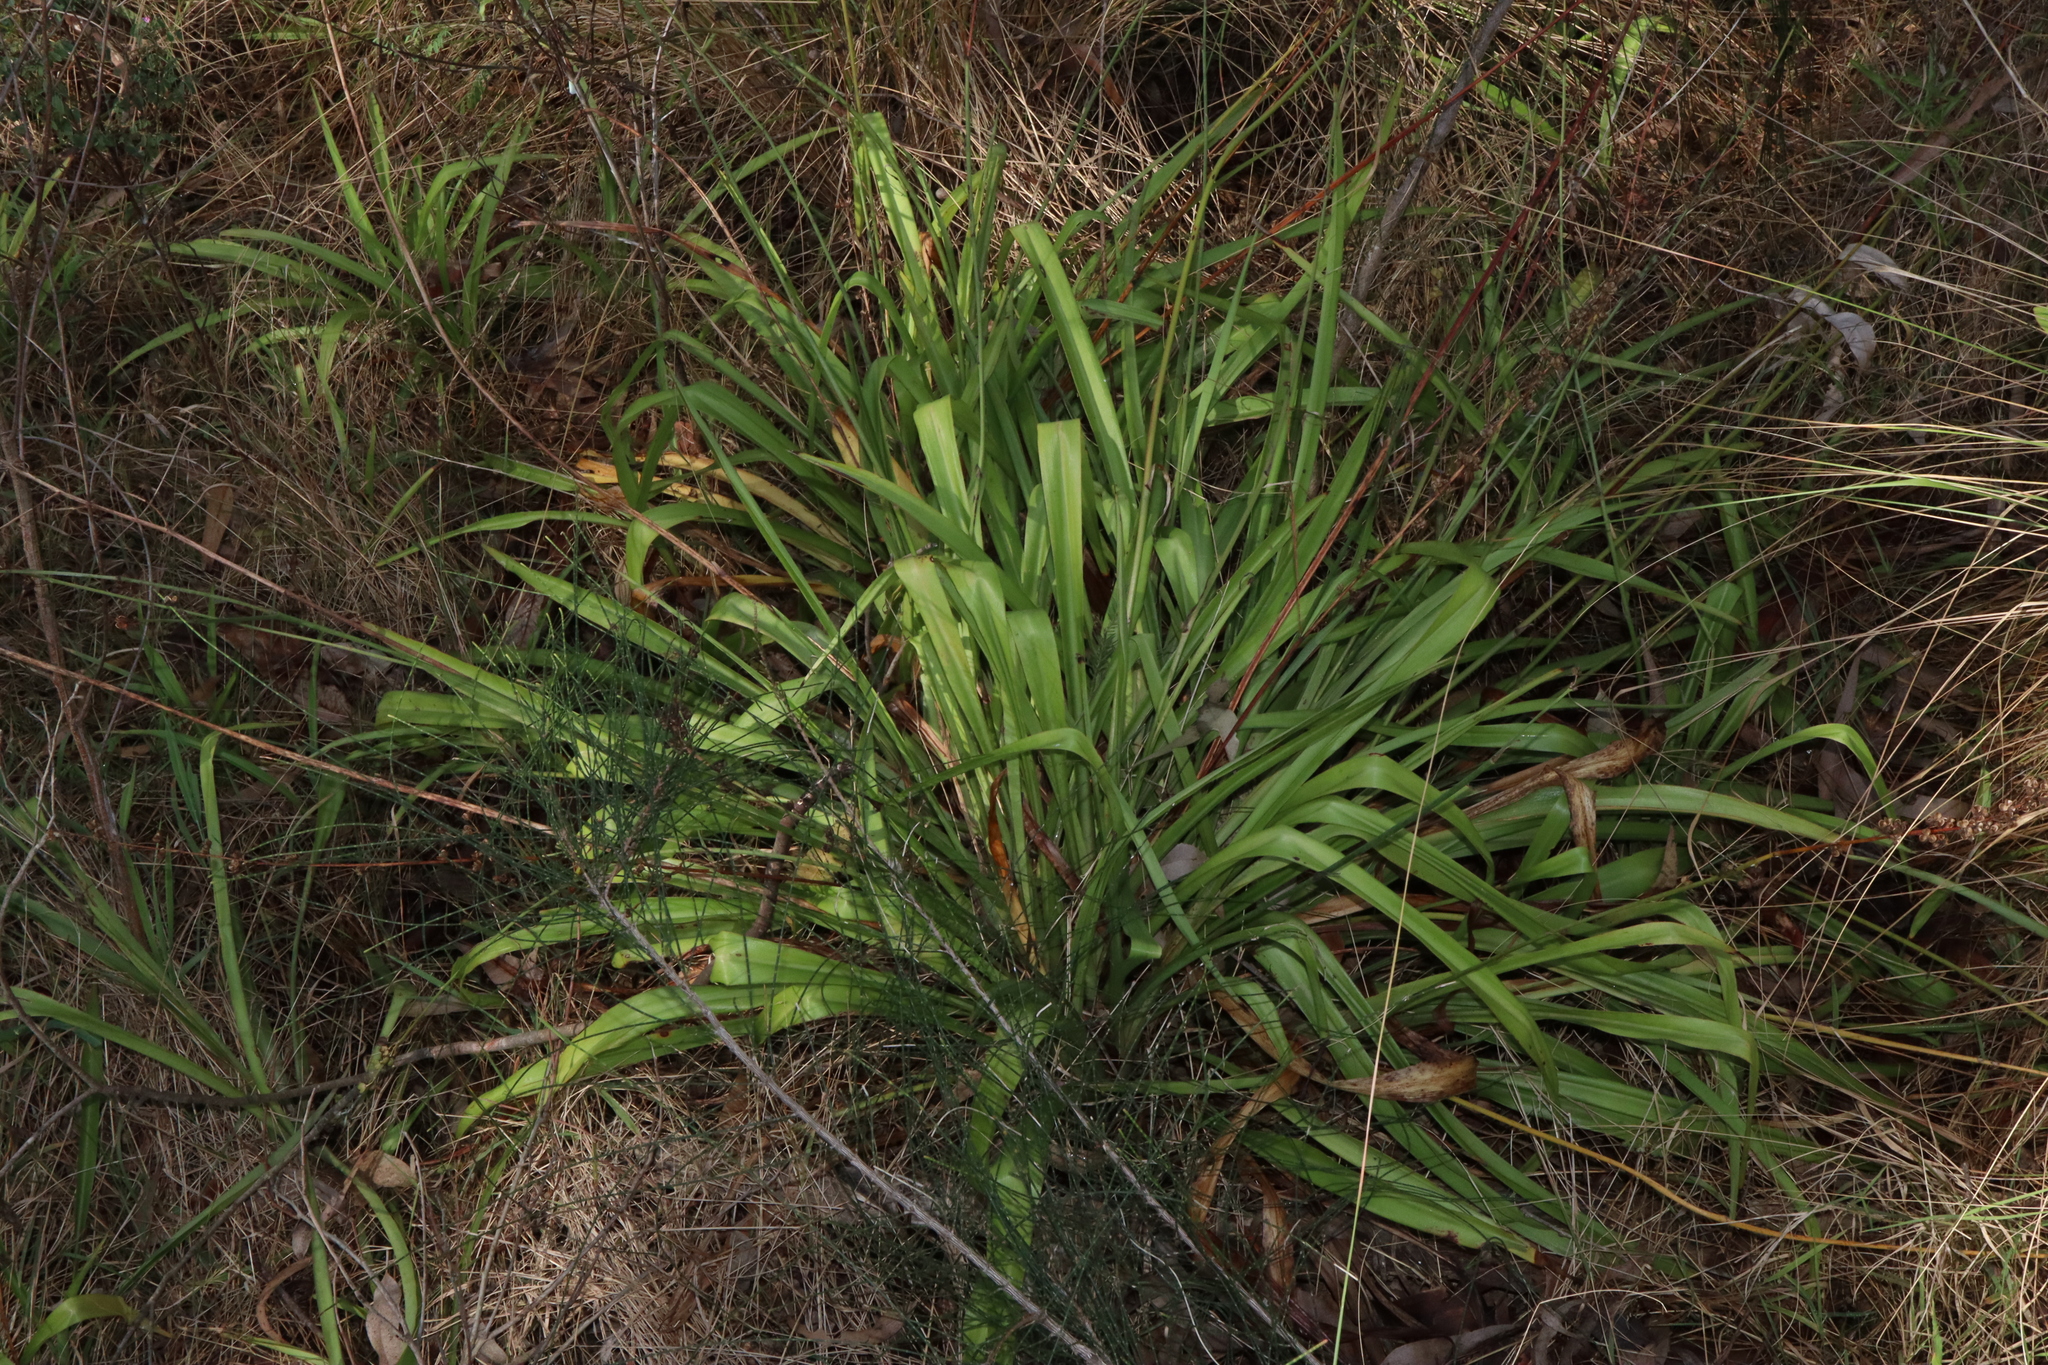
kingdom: Plantae
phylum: Tracheophyta
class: Liliopsida
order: Asparagales
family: Asparagaceae
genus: Chlorophytum
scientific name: Chlorophytum comosum
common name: Spider plant
